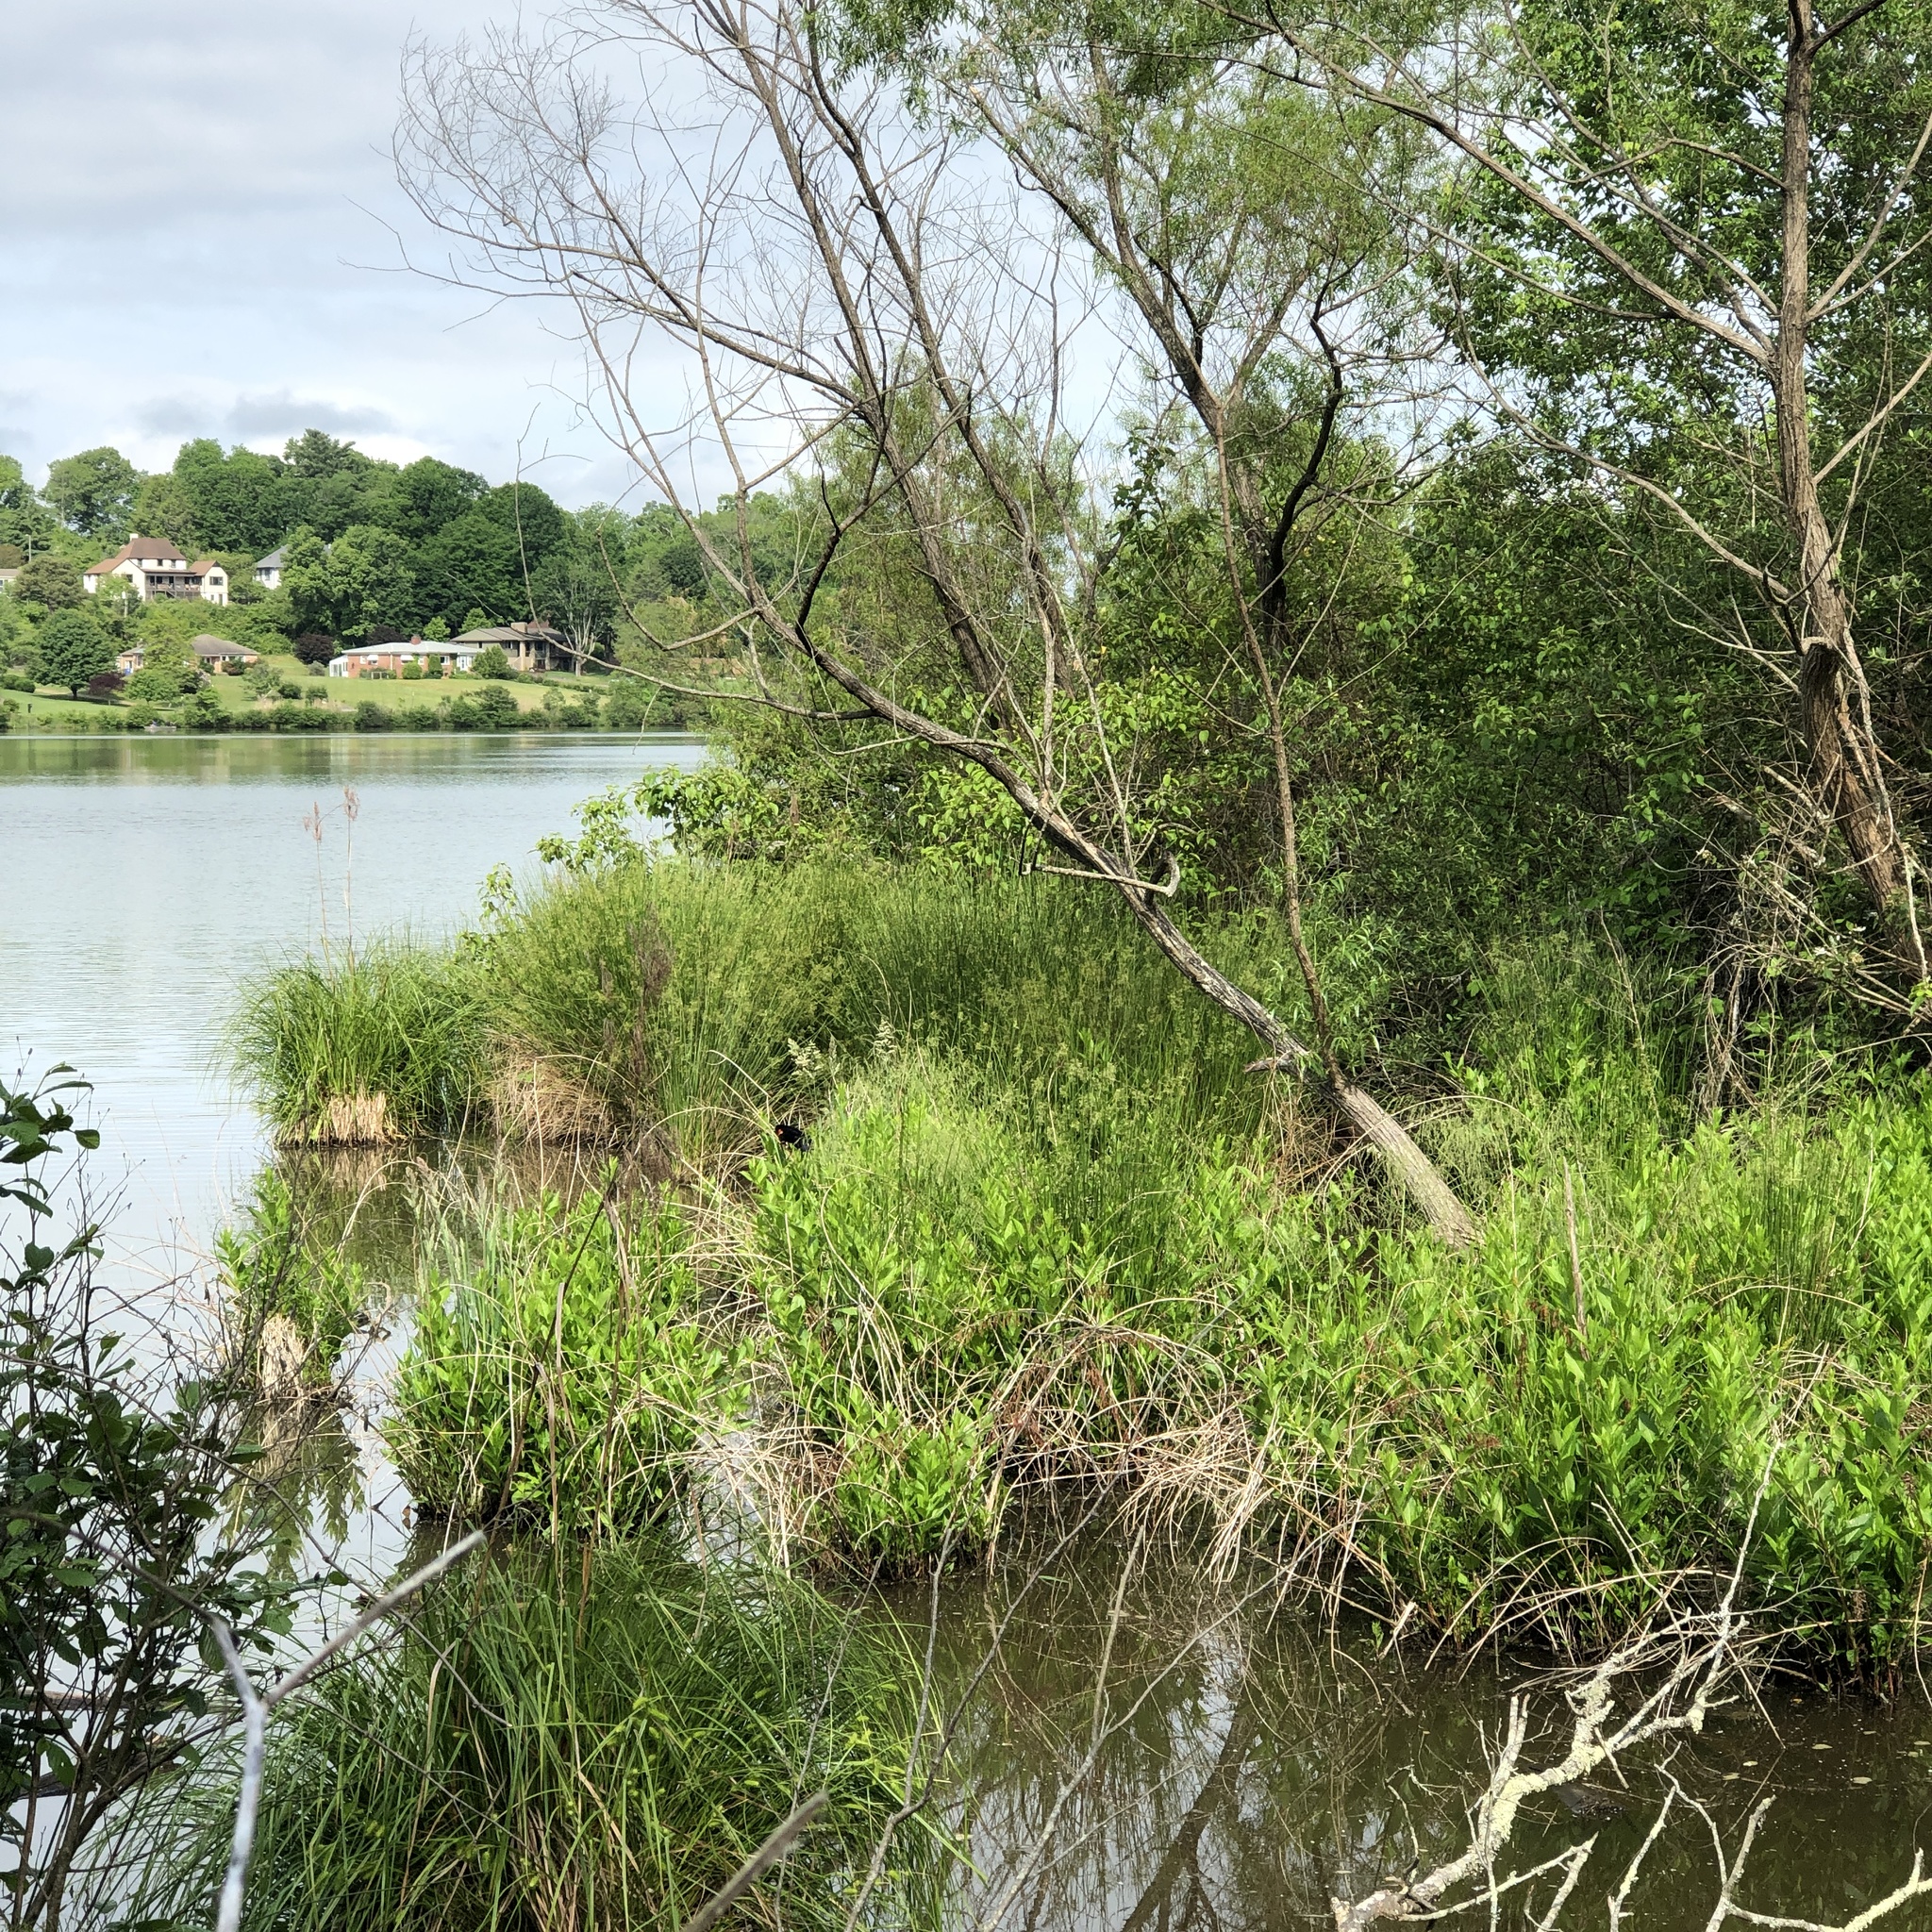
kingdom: Animalia
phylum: Chordata
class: Aves
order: Passeriformes
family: Icteridae
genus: Agelaius
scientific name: Agelaius phoeniceus
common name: Red-winged blackbird
